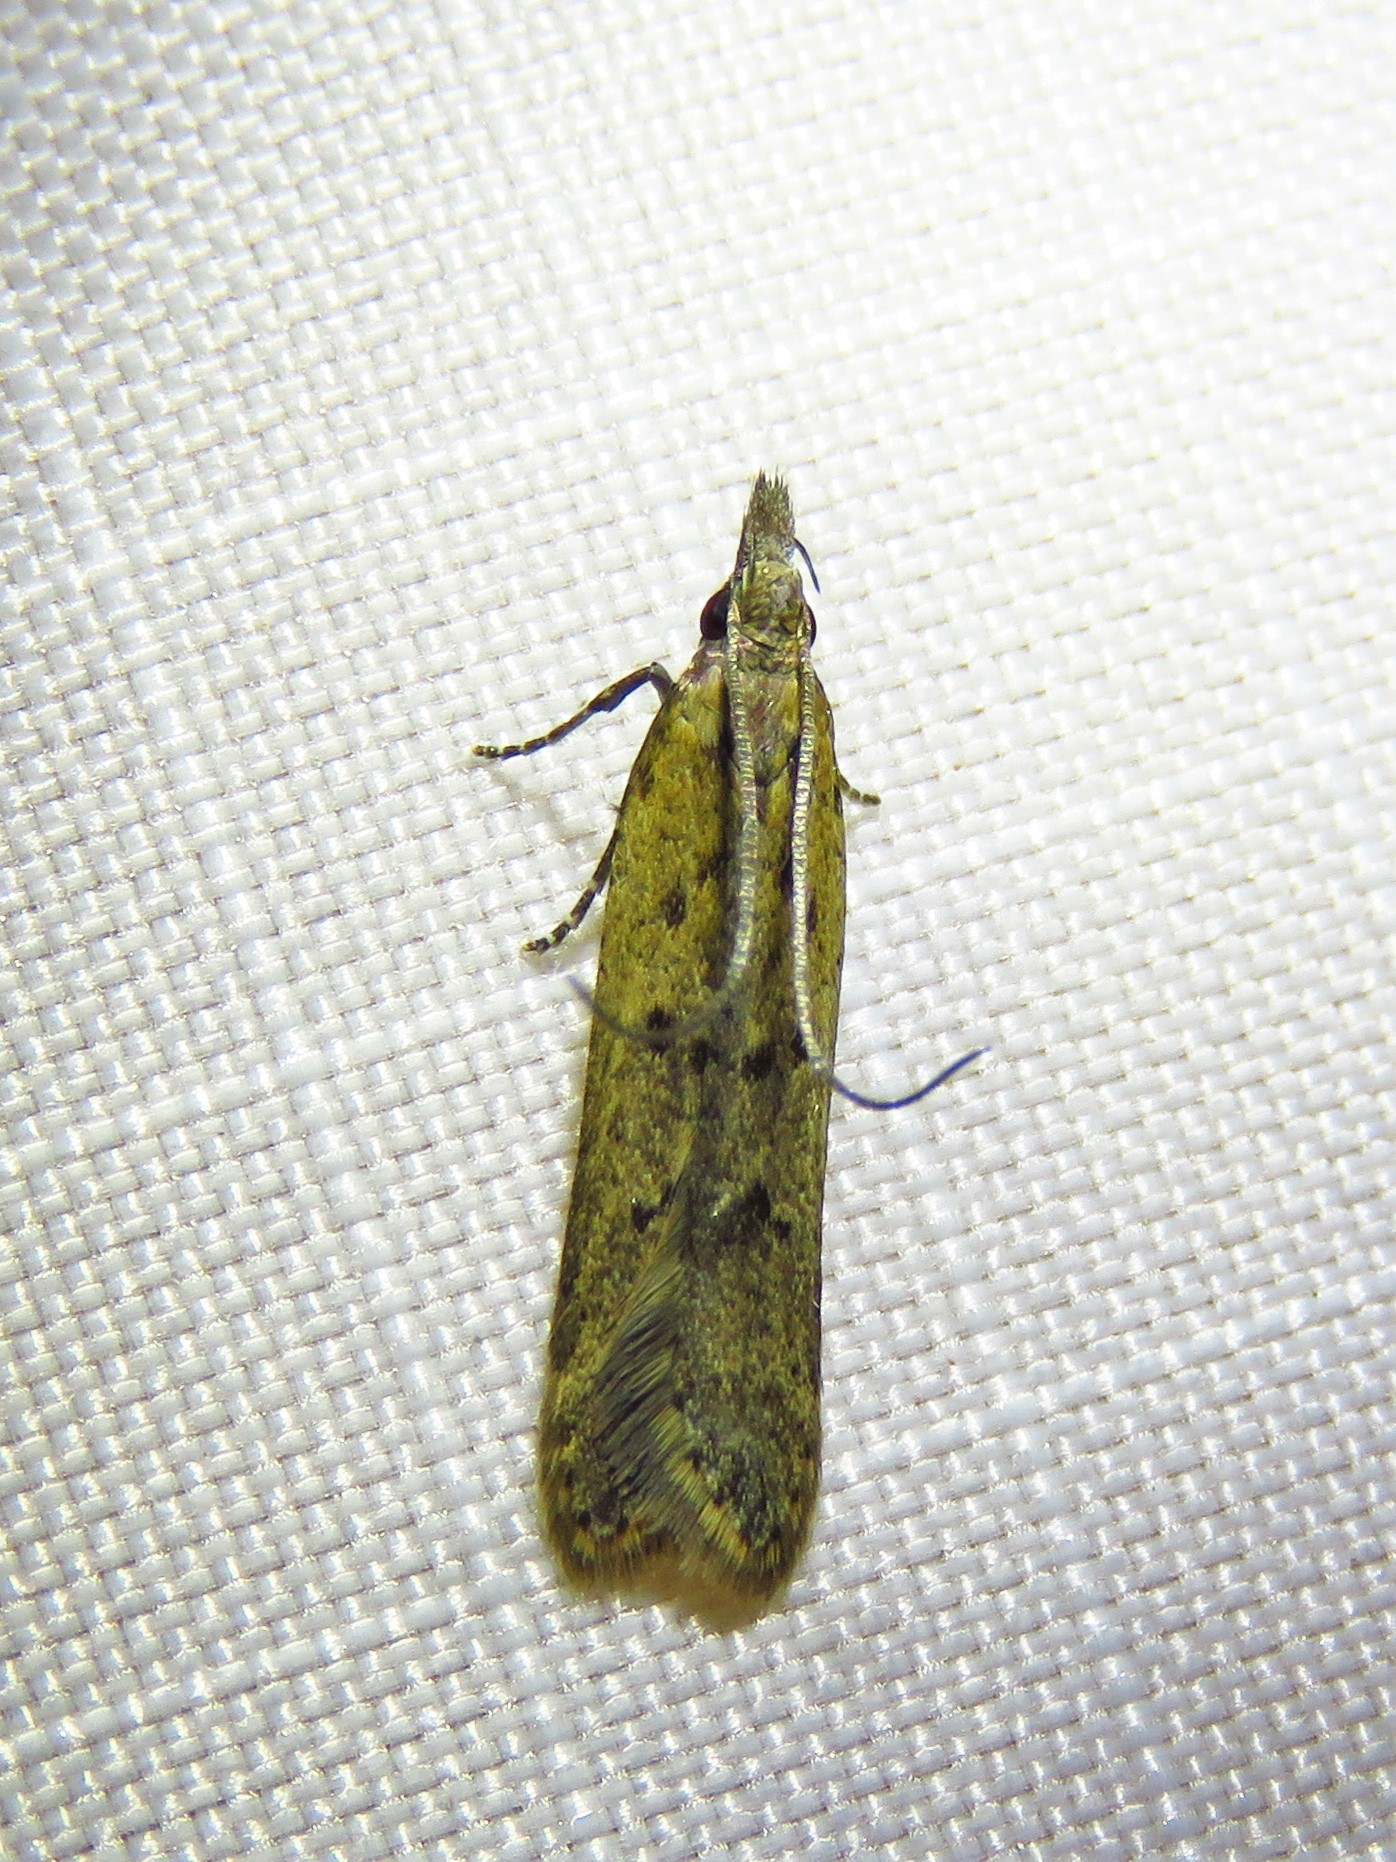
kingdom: Animalia
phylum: Arthropoda
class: Insecta
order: Lepidoptera
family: Gelechiidae
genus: Dichomeris
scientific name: Dichomeris ligulella
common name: Moth
